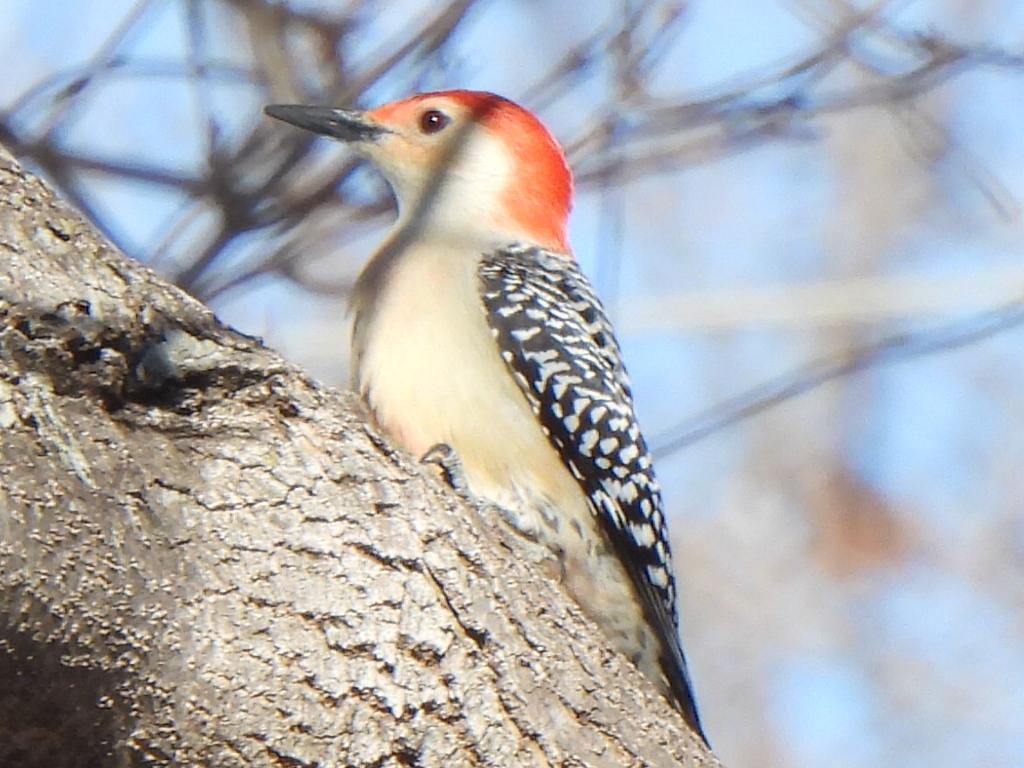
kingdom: Animalia
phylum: Chordata
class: Aves
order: Piciformes
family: Picidae
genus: Melanerpes
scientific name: Melanerpes carolinus
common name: Red-bellied woodpecker
